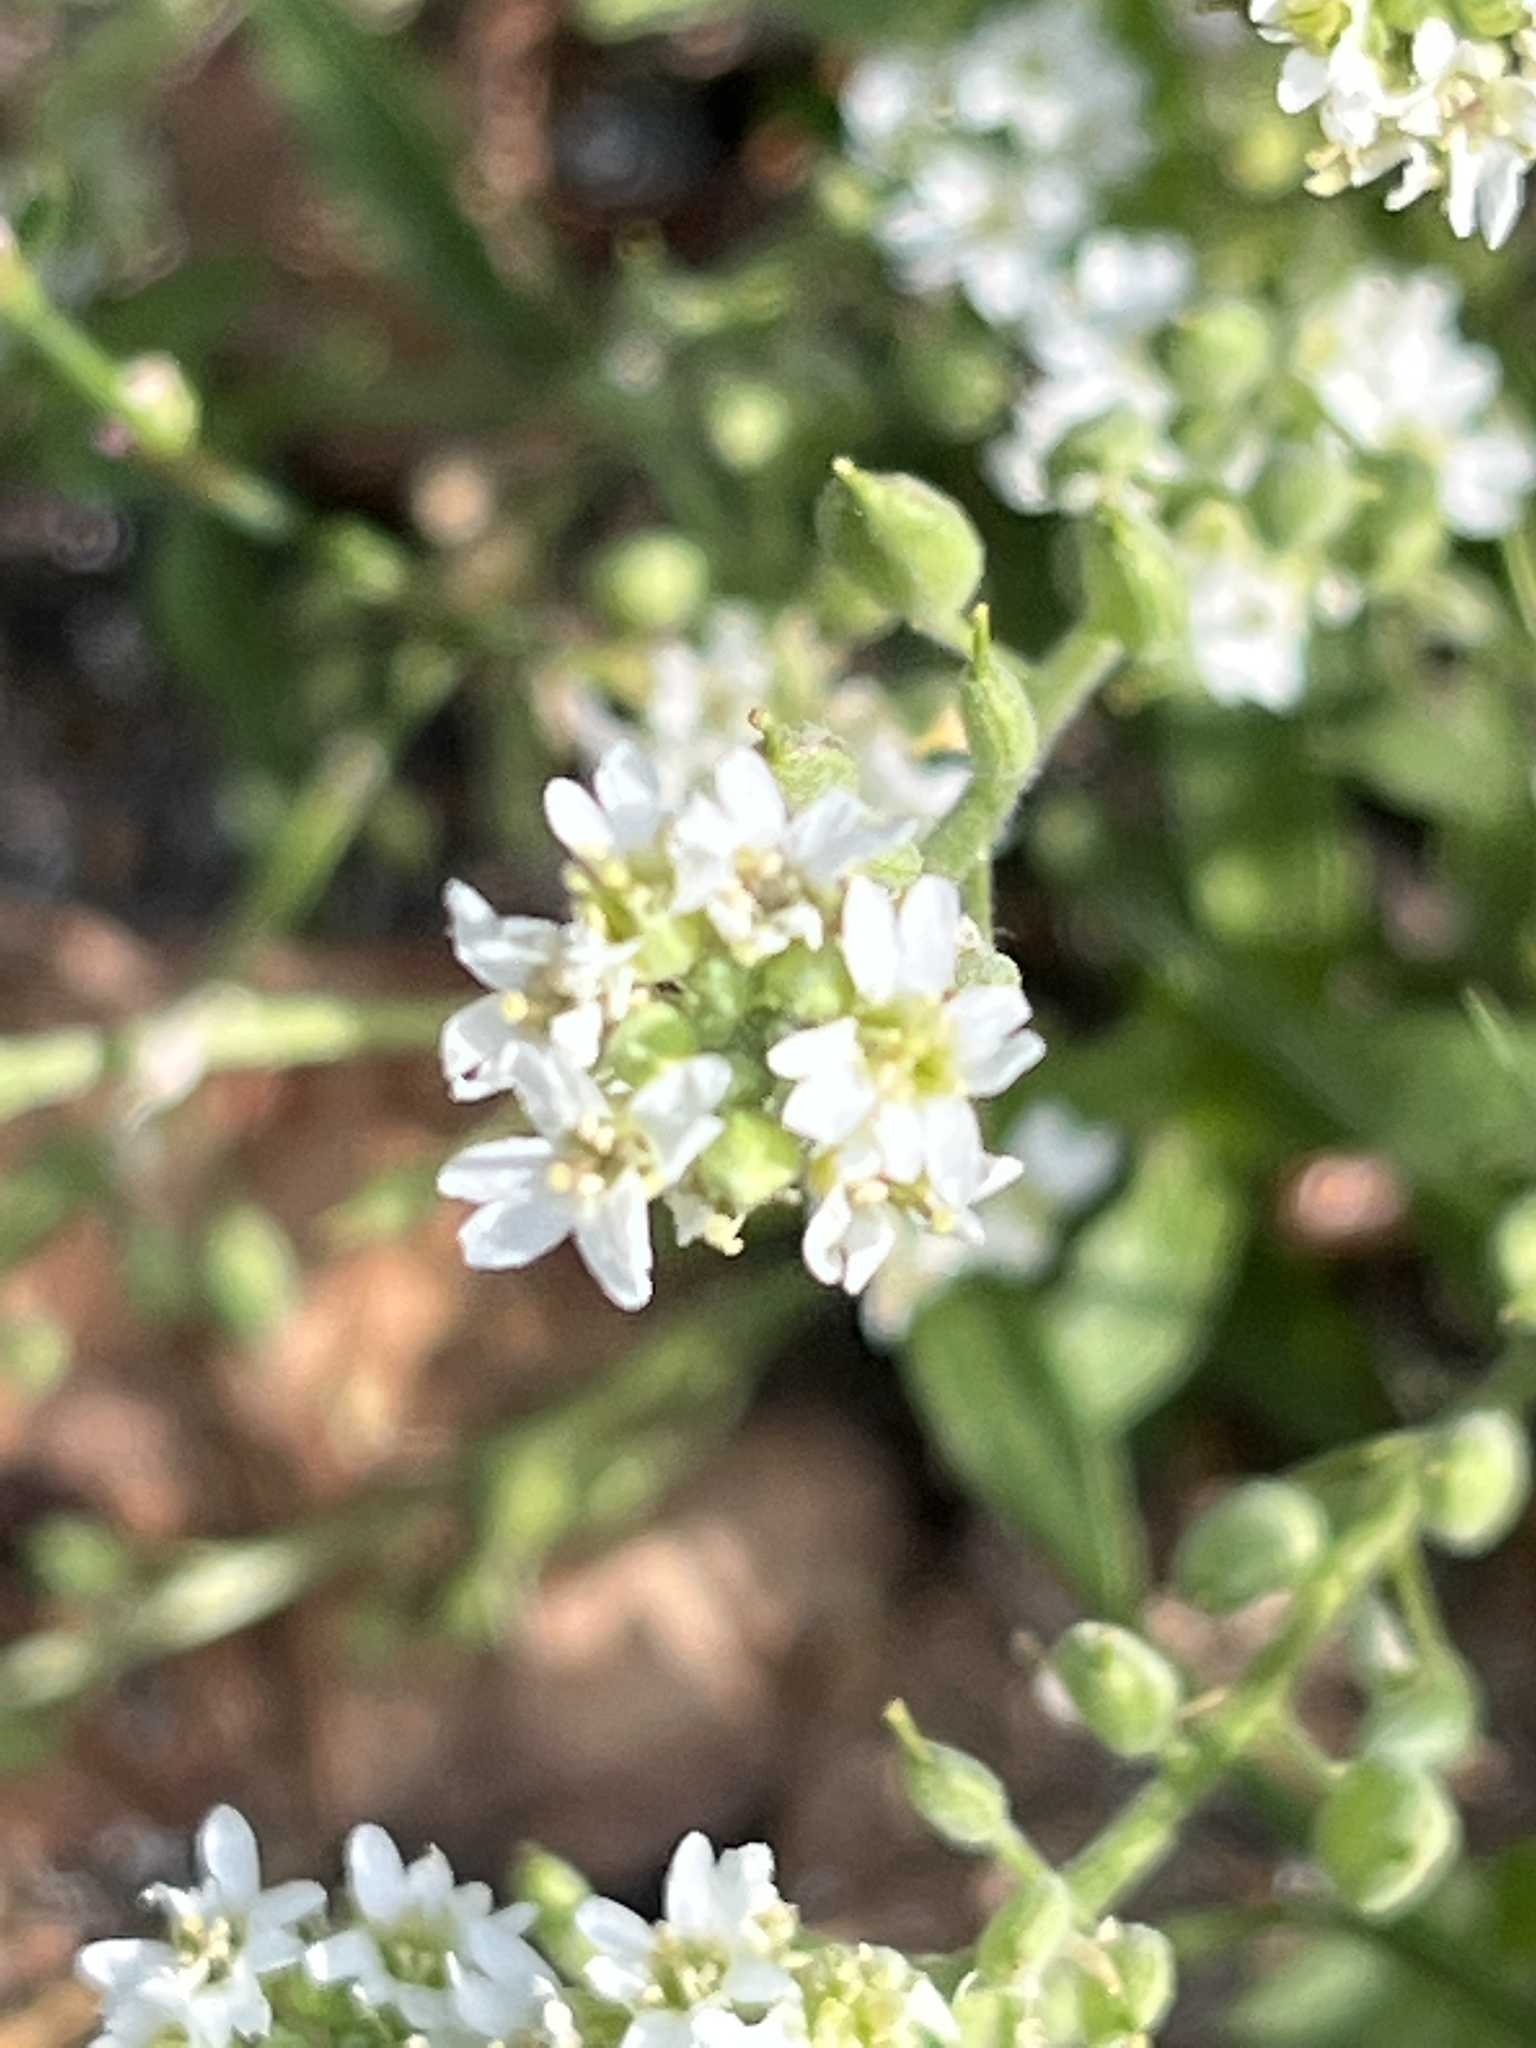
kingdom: Plantae
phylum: Tracheophyta
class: Magnoliopsida
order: Brassicales
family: Brassicaceae
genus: Berteroa
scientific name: Berteroa incana
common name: Hoary alison
